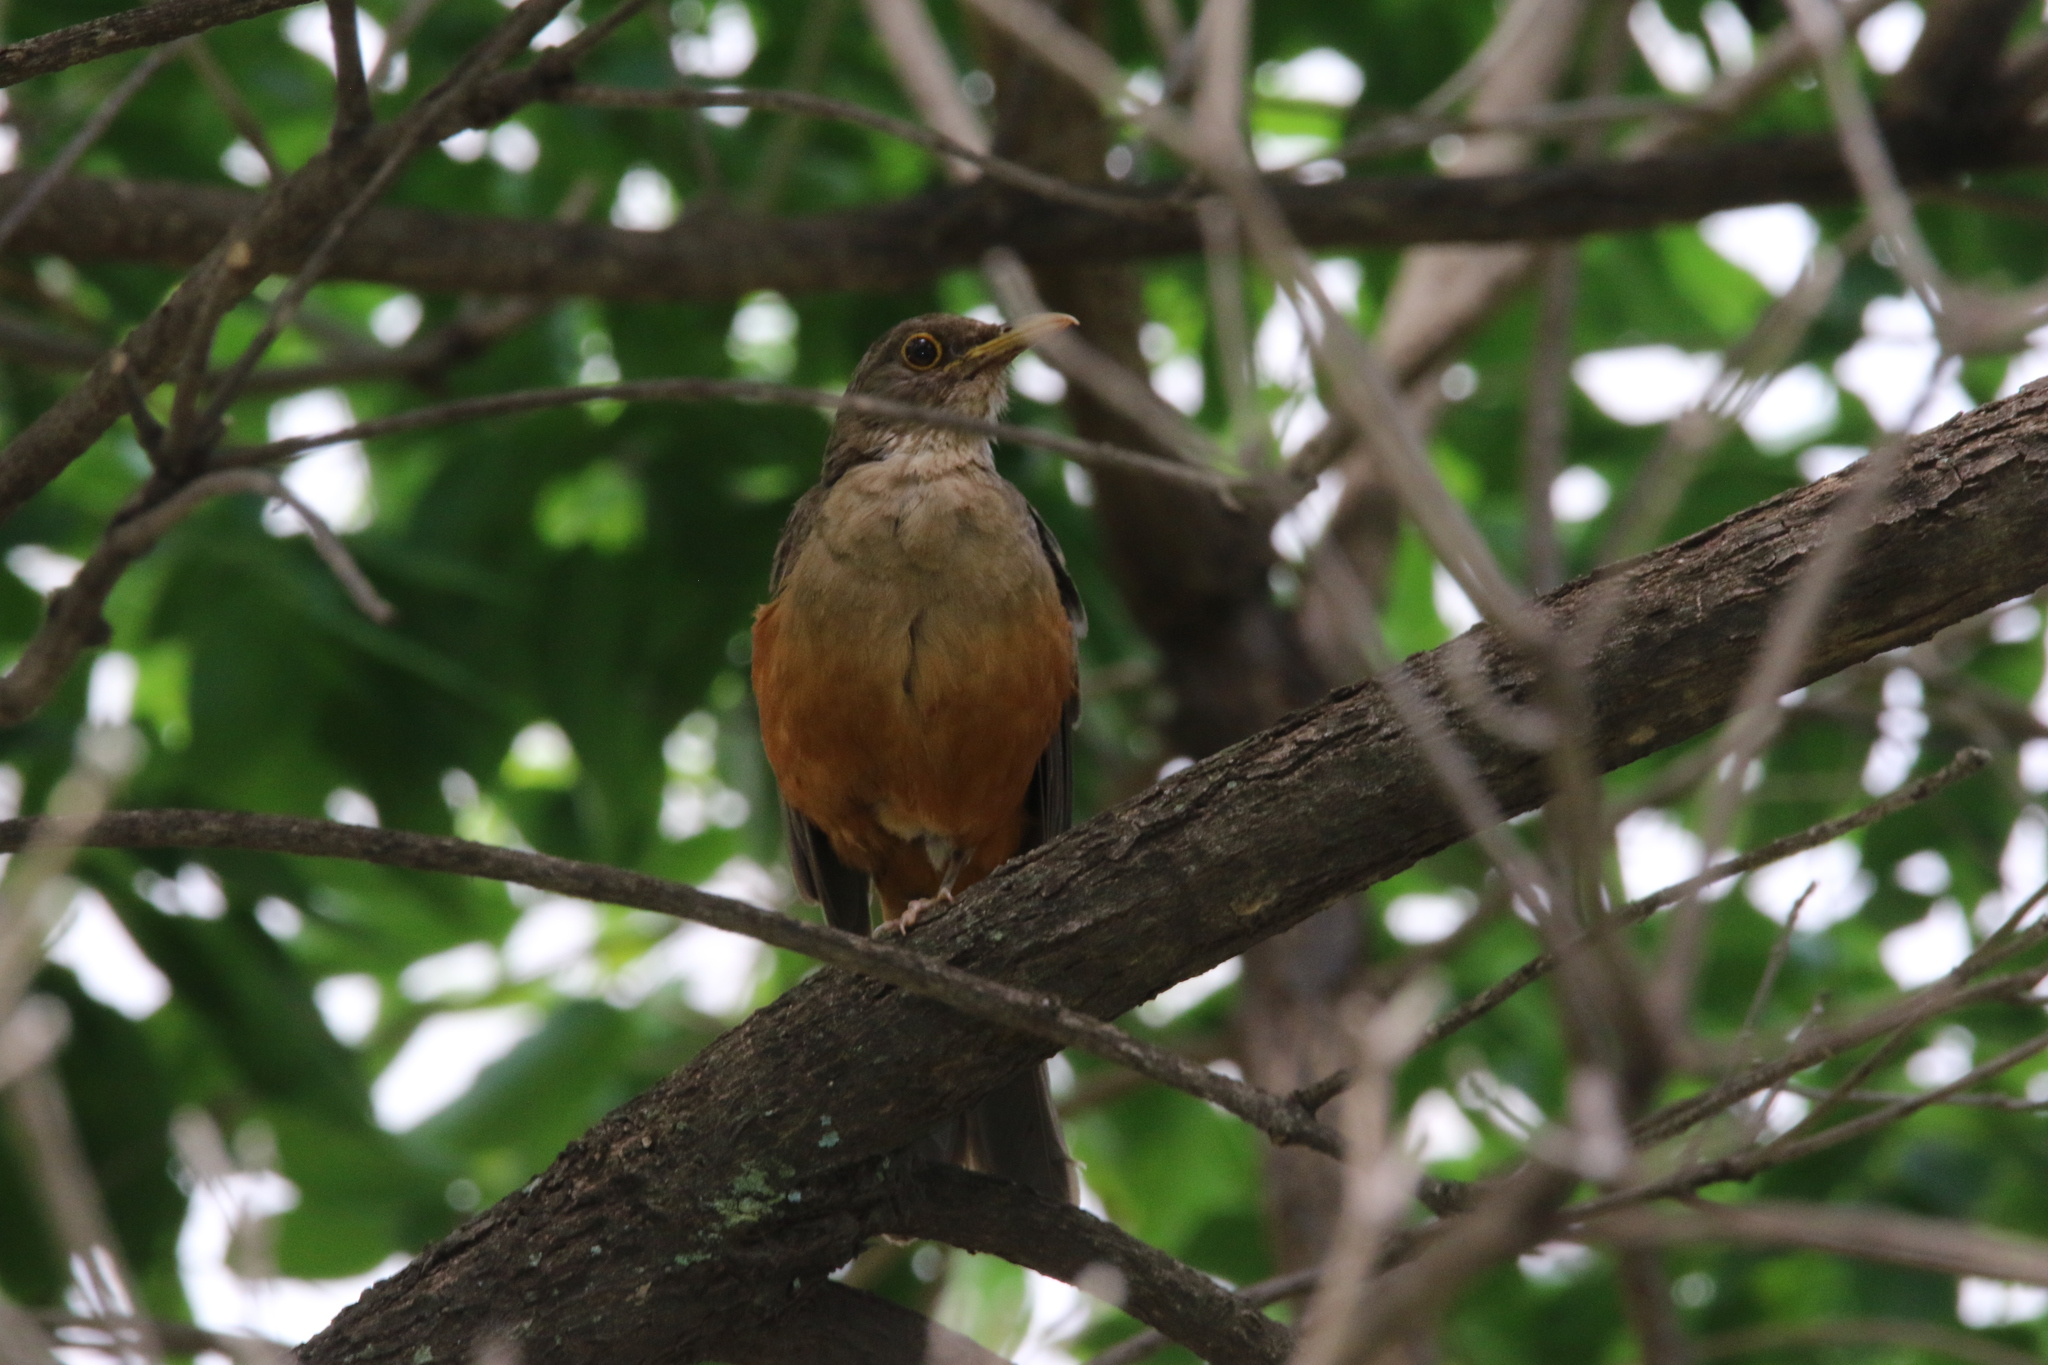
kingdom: Animalia
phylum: Chordata
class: Aves
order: Passeriformes
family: Turdidae
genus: Turdus
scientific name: Turdus rufiventris
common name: Rufous-bellied thrush
